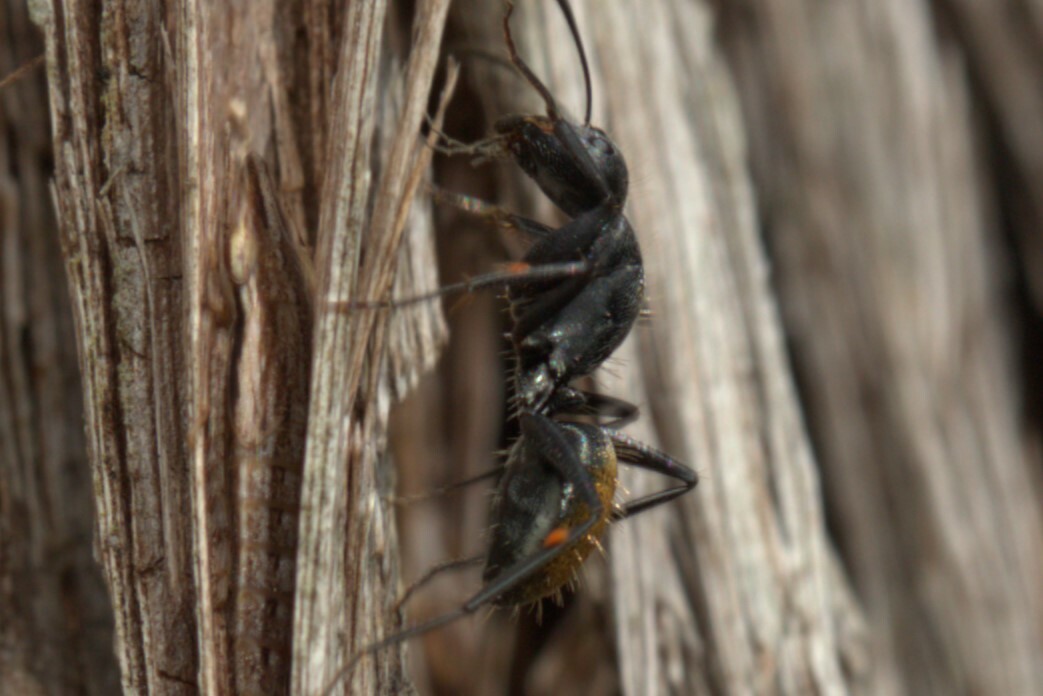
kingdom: Animalia
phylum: Arthropoda
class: Insecta
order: Hymenoptera
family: Formicidae
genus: Camponotus
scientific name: Camponotus aeneopilosus
